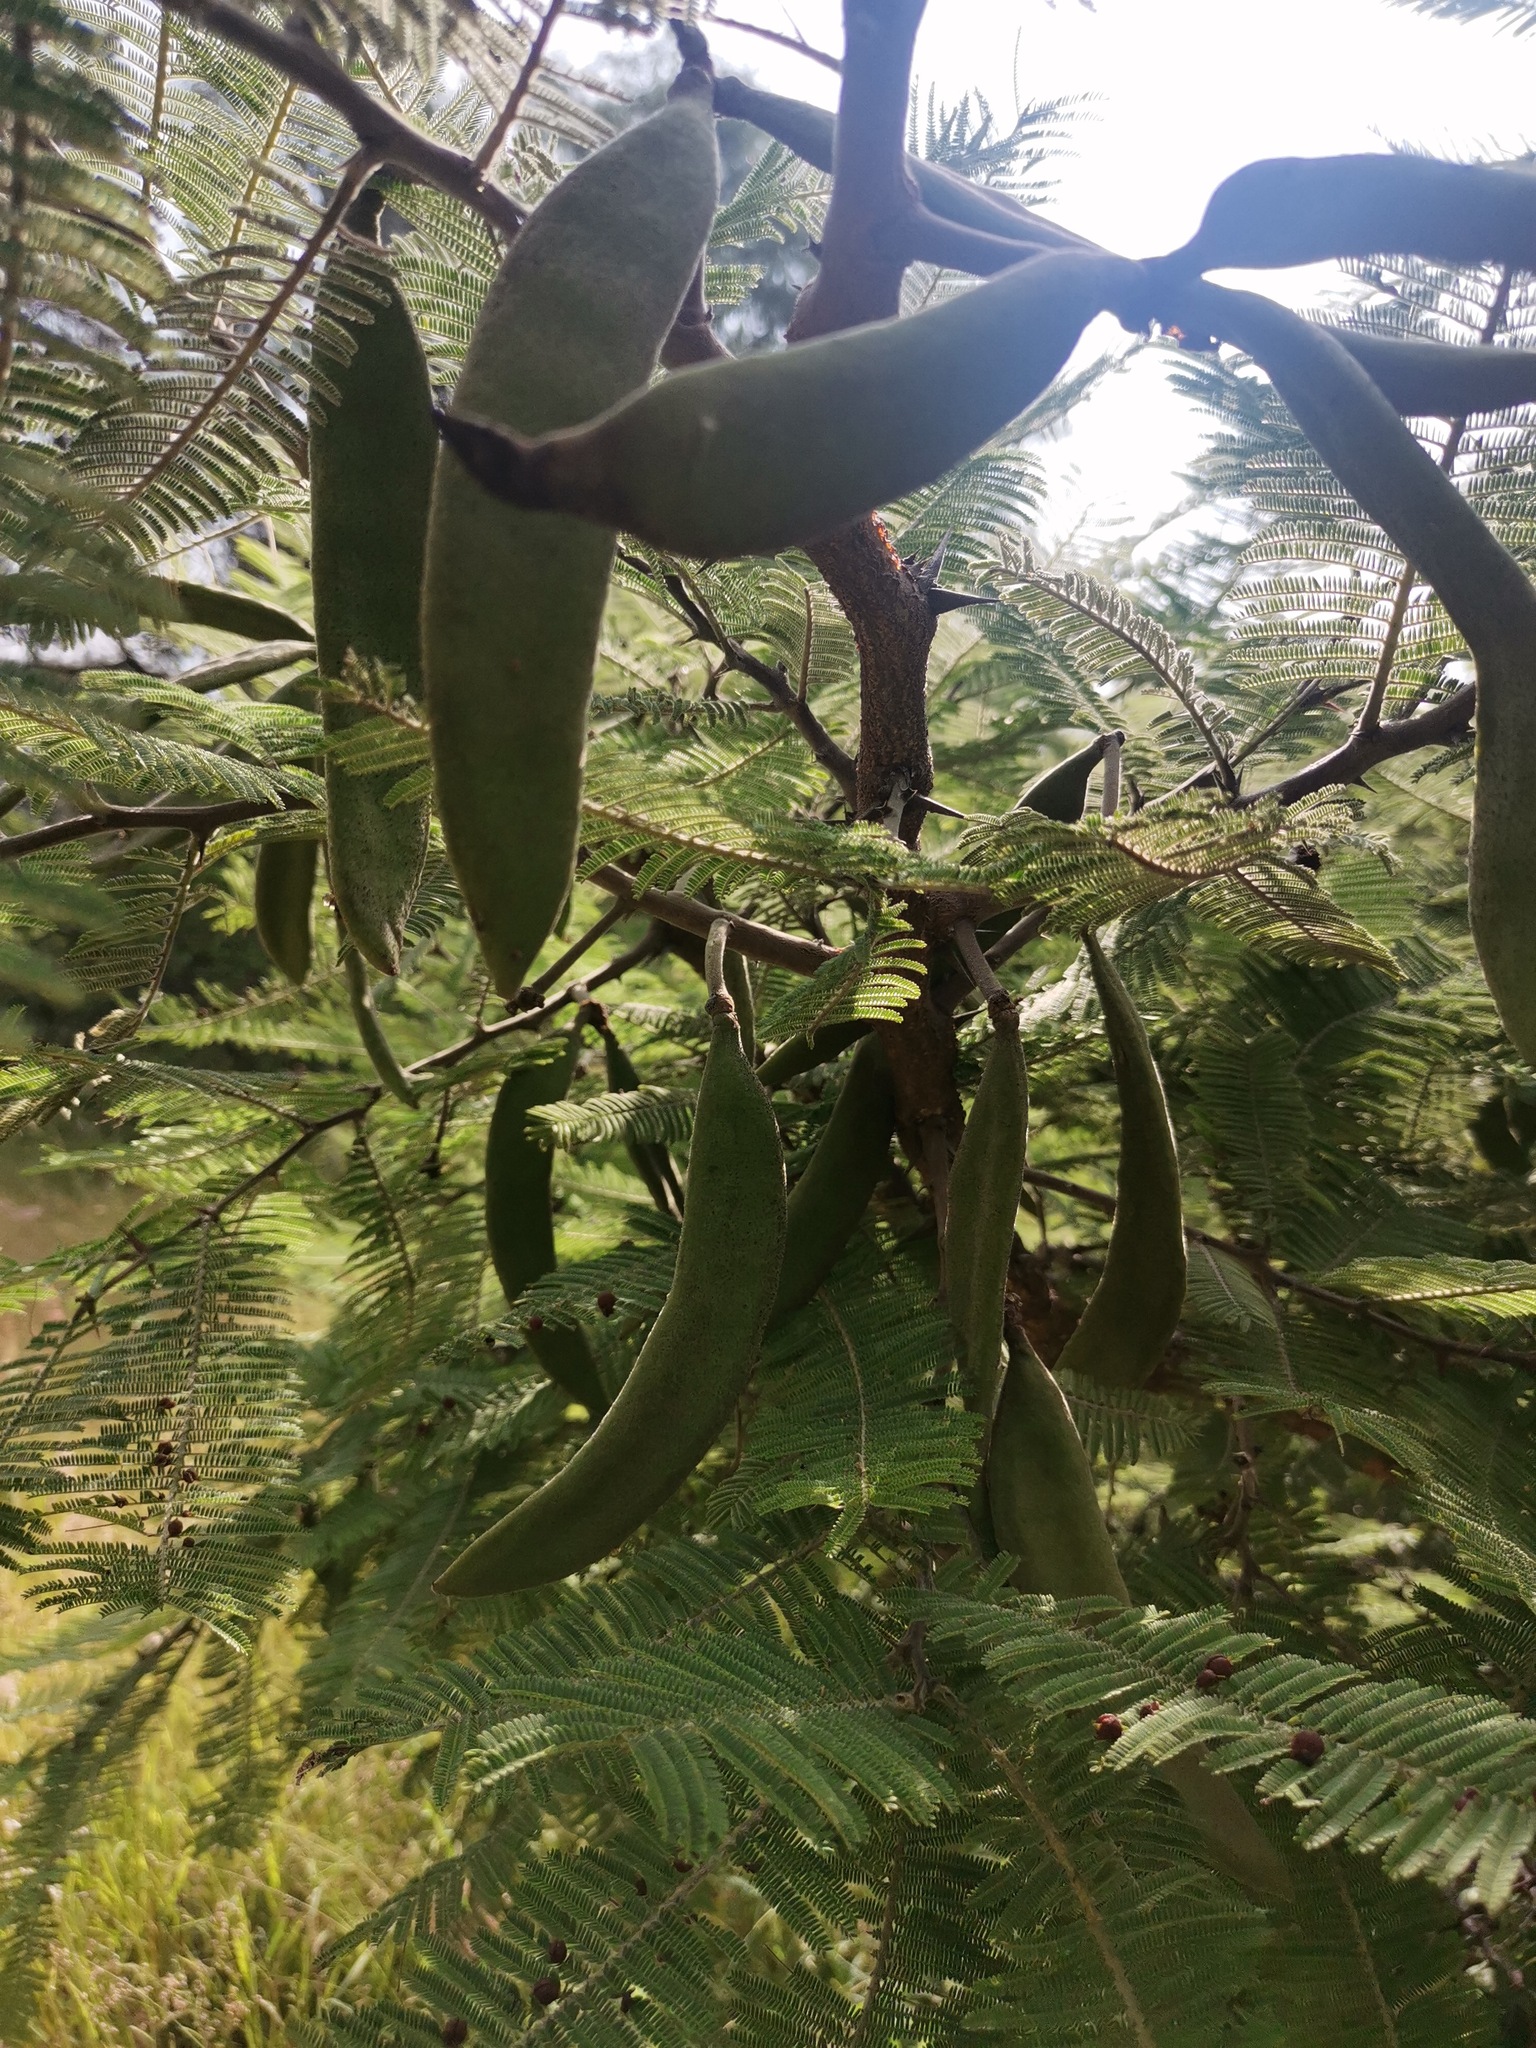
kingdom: Plantae
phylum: Tracheophyta
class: Magnoliopsida
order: Fabales
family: Fabaceae
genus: Vachellia
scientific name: Vachellia pennatula
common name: Fern-leaf acacia
